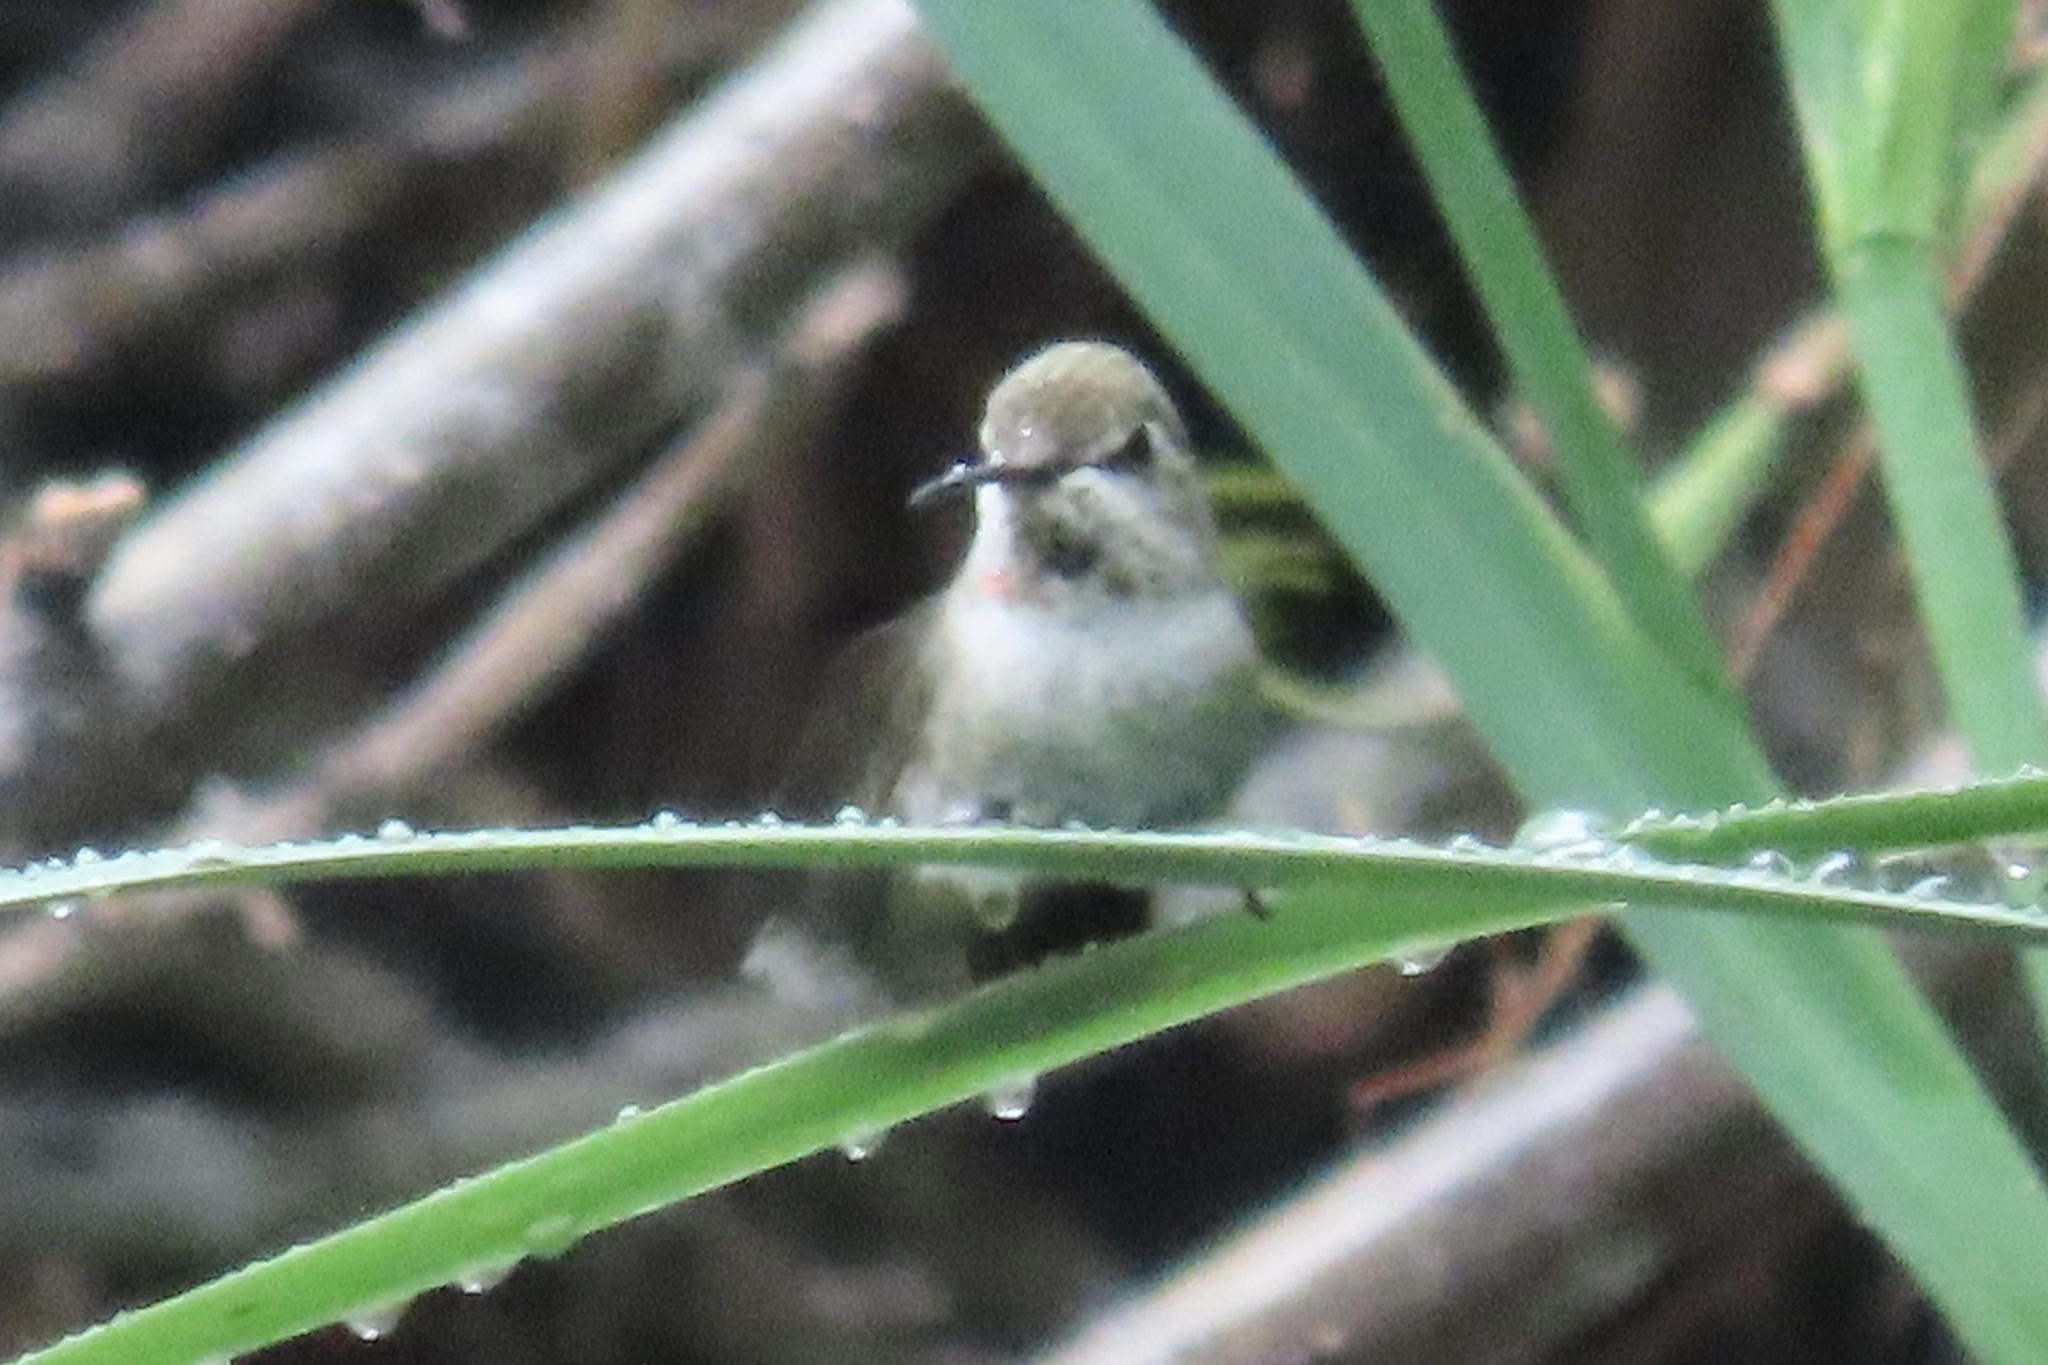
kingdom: Animalia
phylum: Chordata
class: Aves
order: Apodiformes
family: Trochilidae
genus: Calypte
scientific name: Calypte costae
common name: Costa's hummingbird
